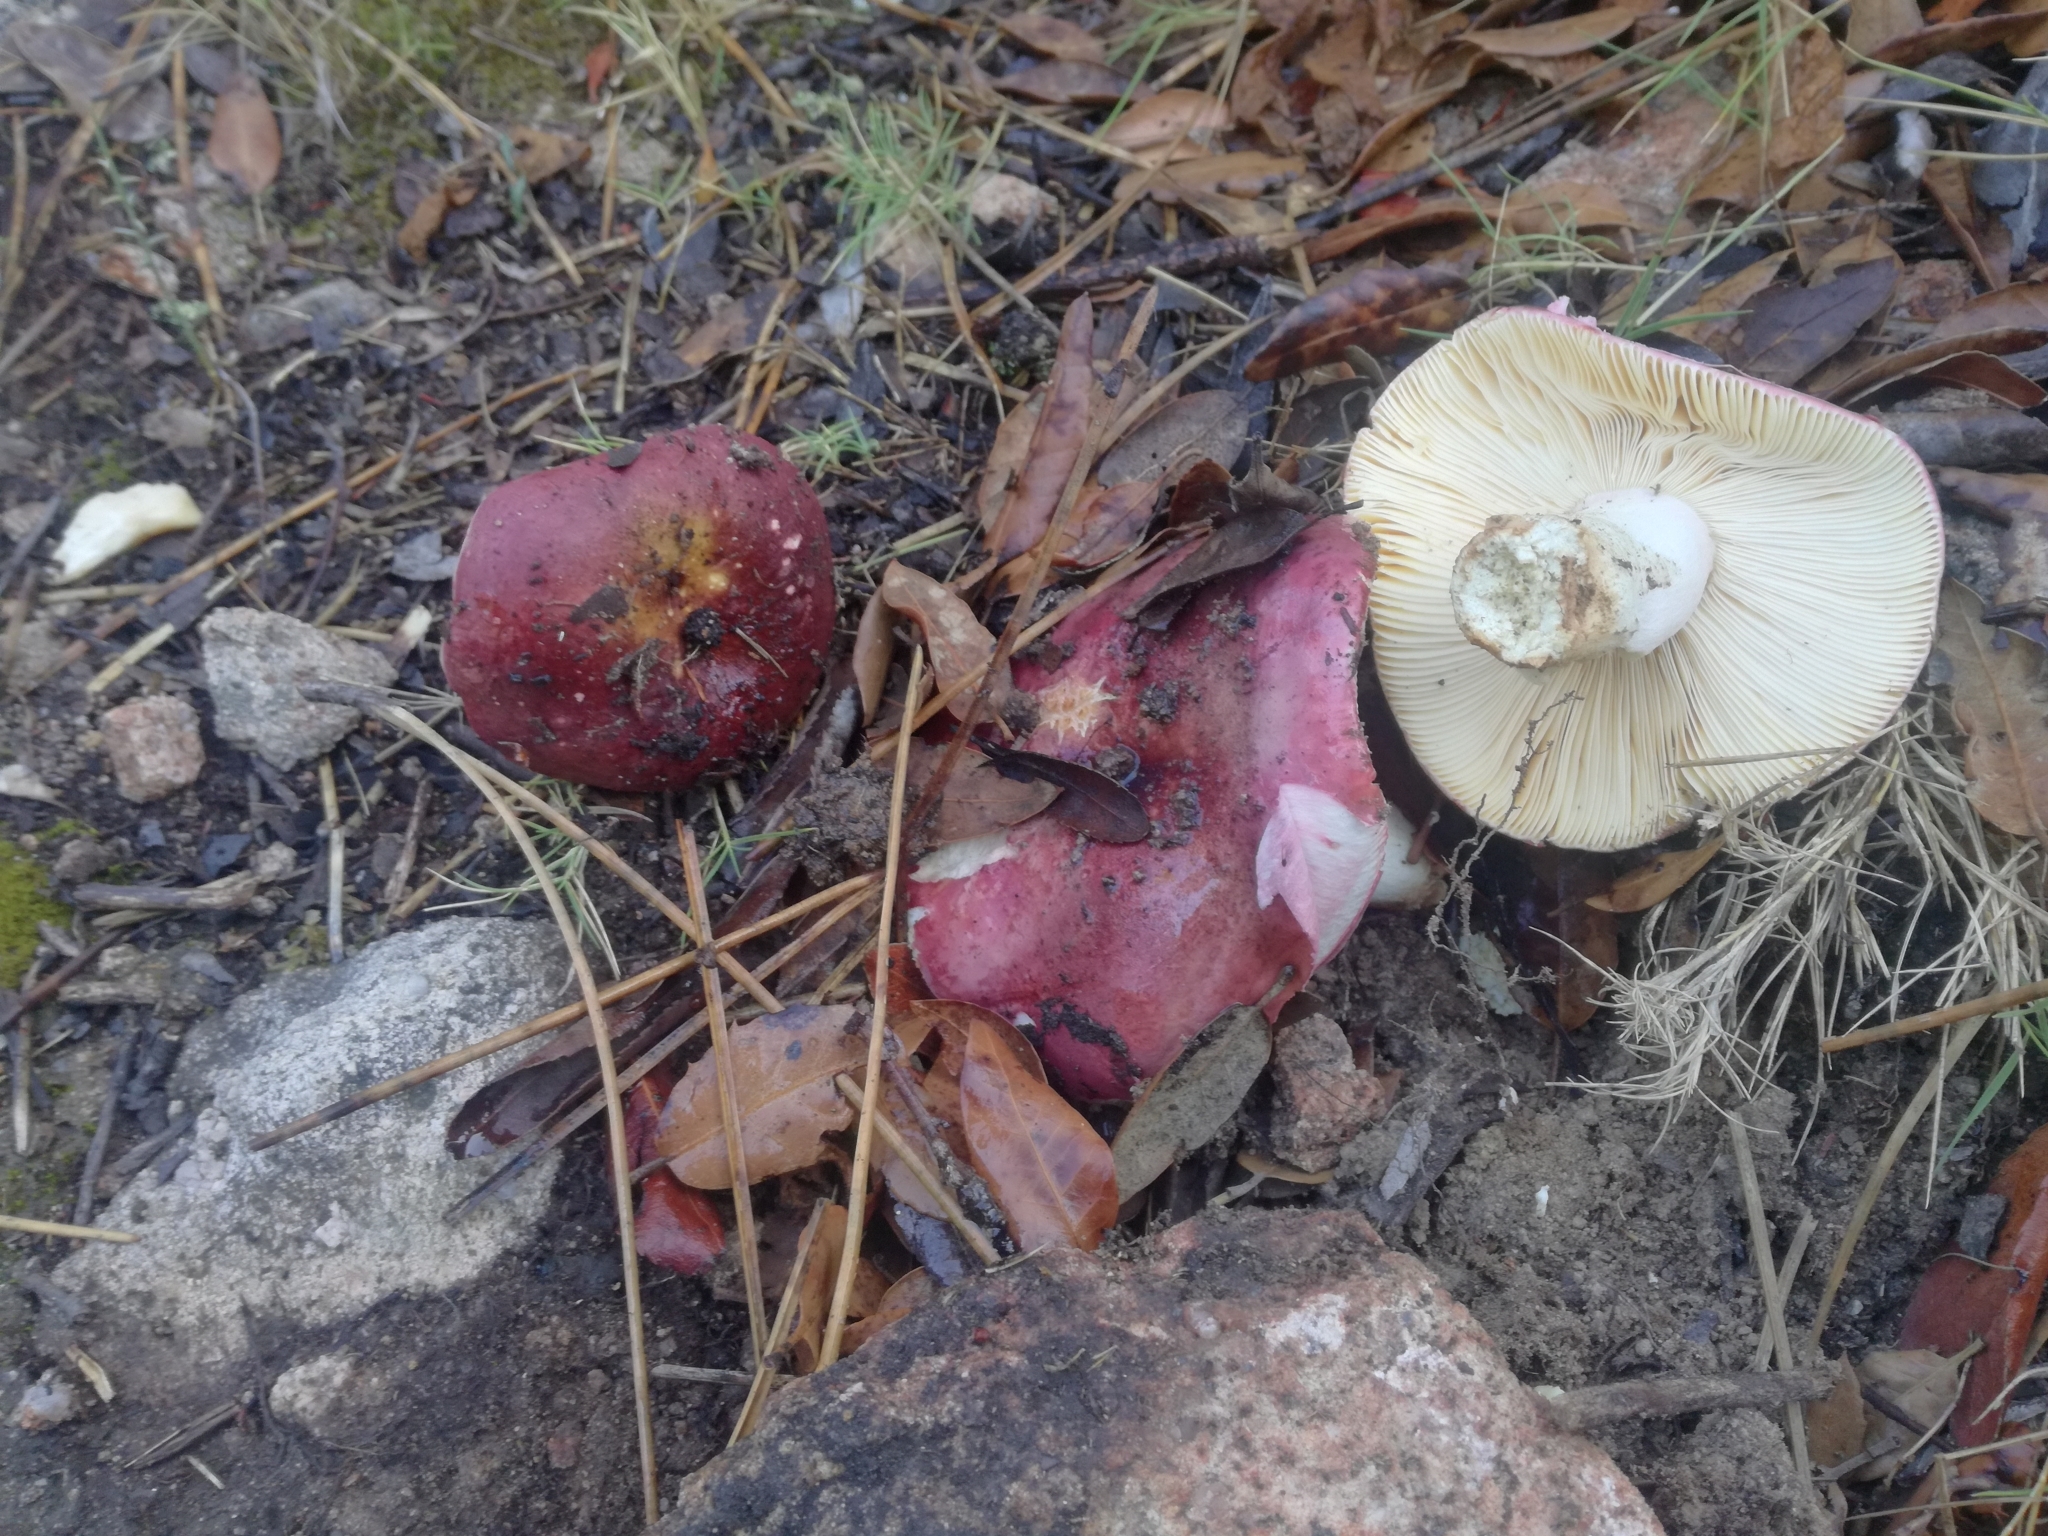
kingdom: Fungi
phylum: Basidiomycota
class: Agaricomycetes
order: Russulales
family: Russulaceae
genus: Russula
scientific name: Russula seperina
